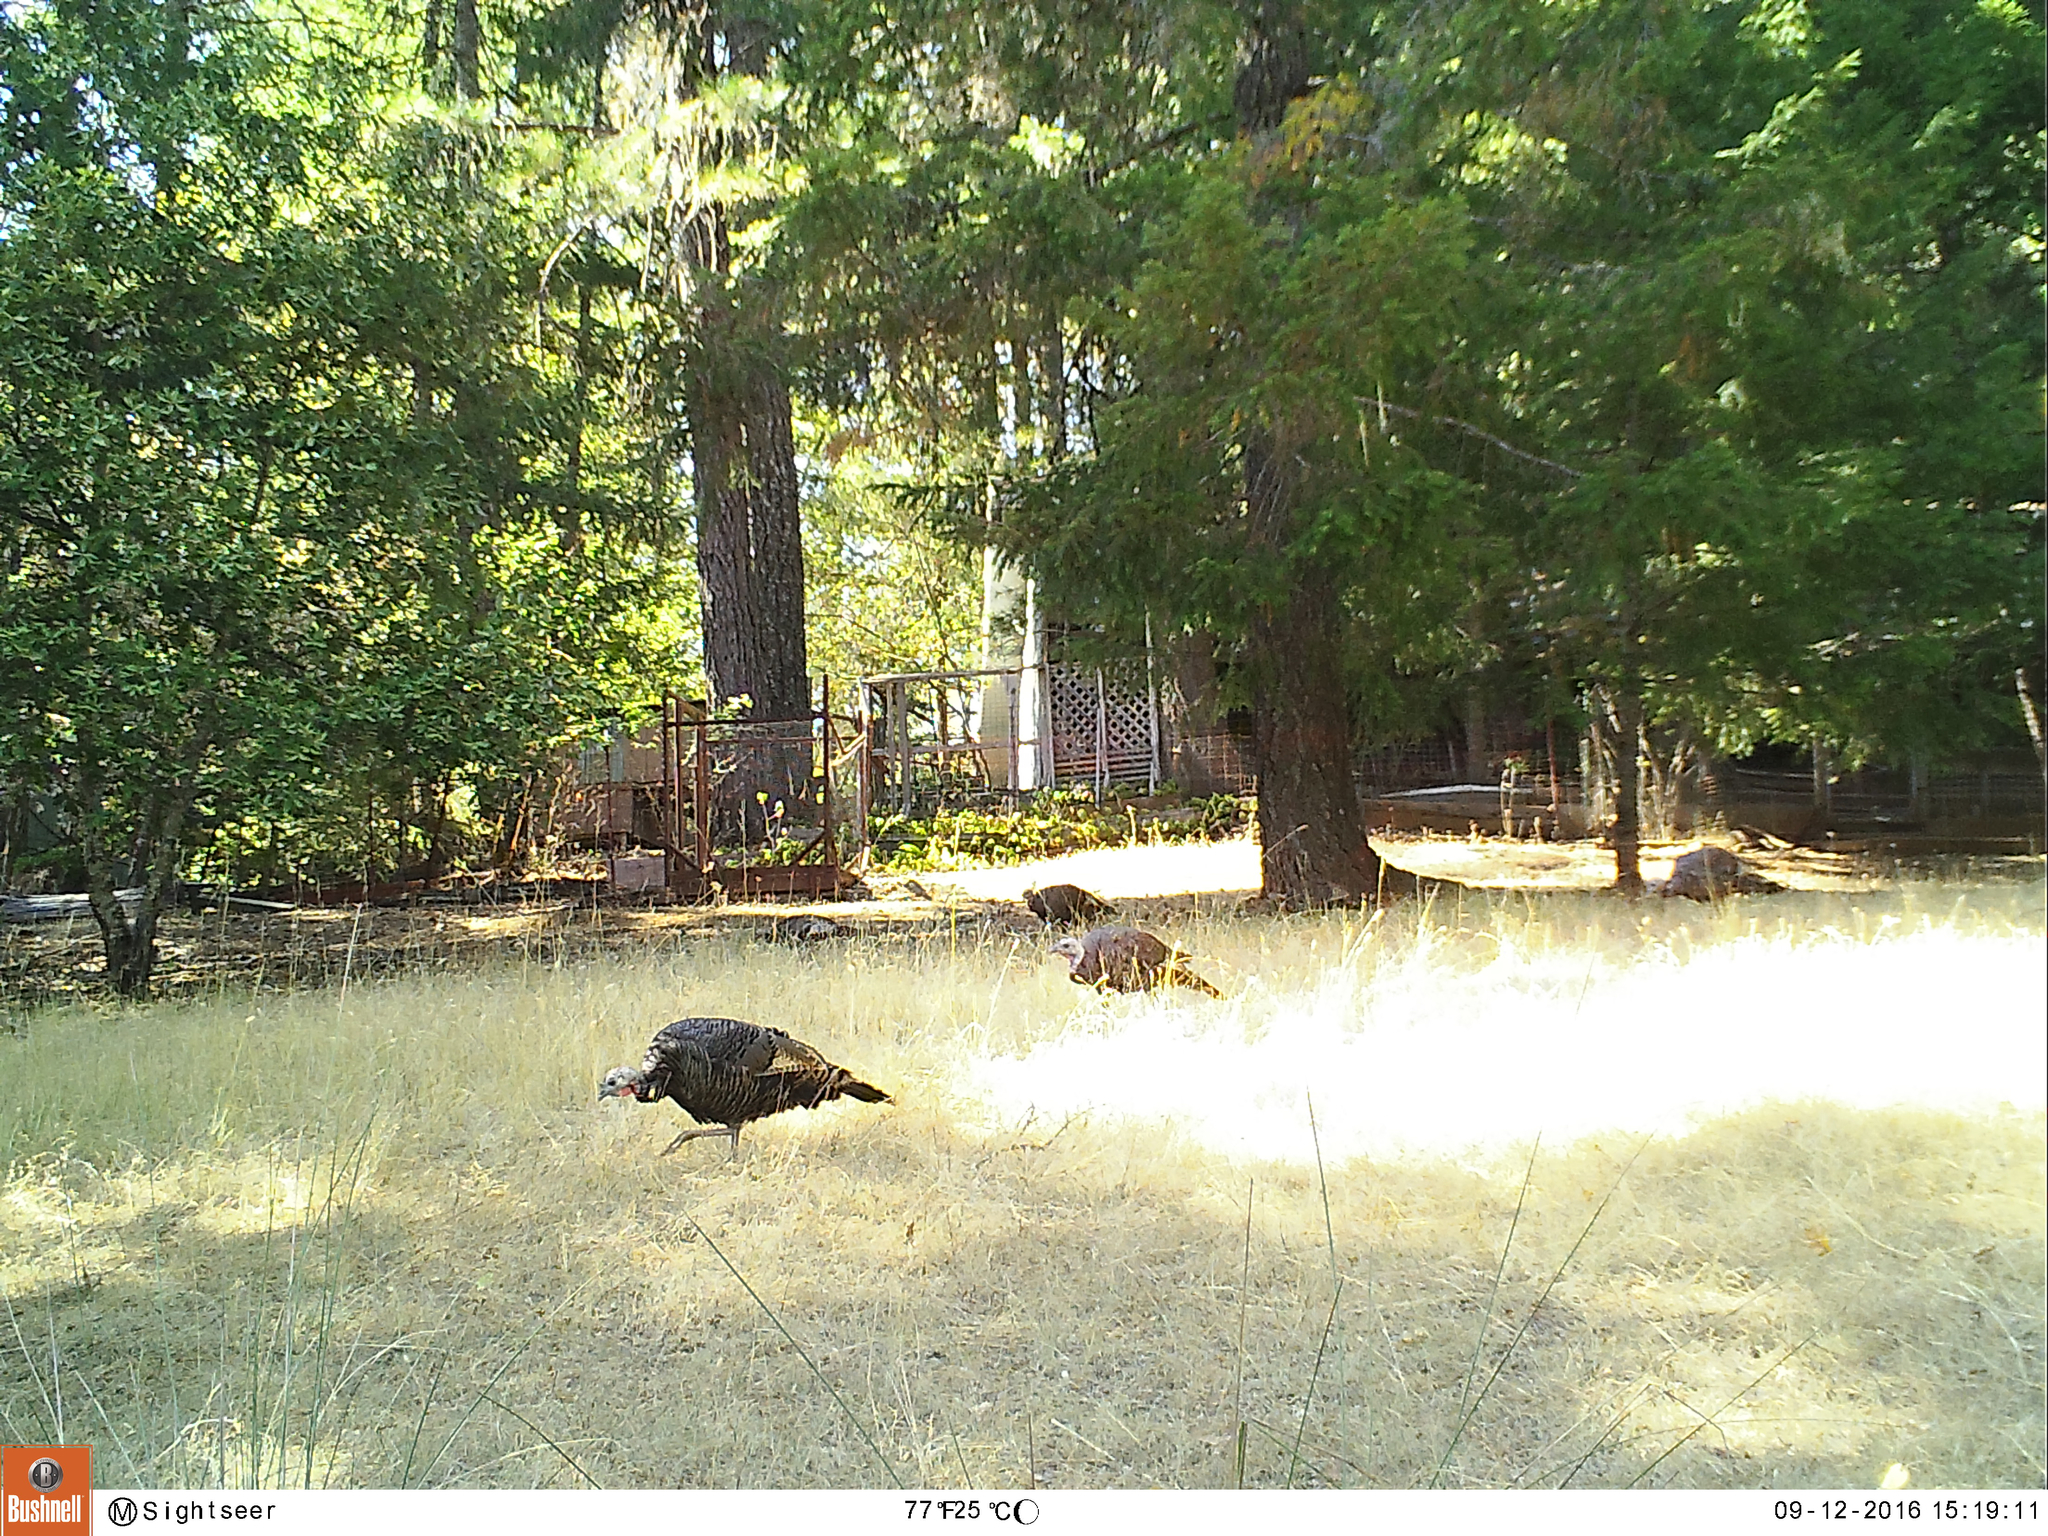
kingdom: Animalia
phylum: Chordata
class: Aves
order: Galliformes
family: Phasianidae
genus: Meleagris
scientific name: Meleagris gallopavo
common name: Wild turkey
